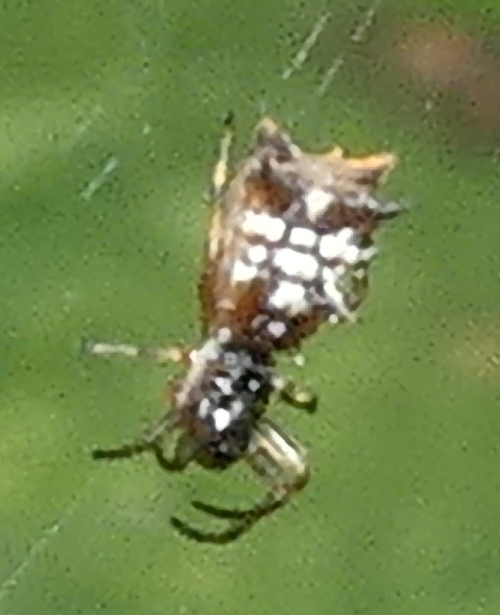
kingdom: Animalia
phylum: Arthropoda
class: Arachnida
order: Araneae
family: Araneidae
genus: Micrathena
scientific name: Micrathena picta
